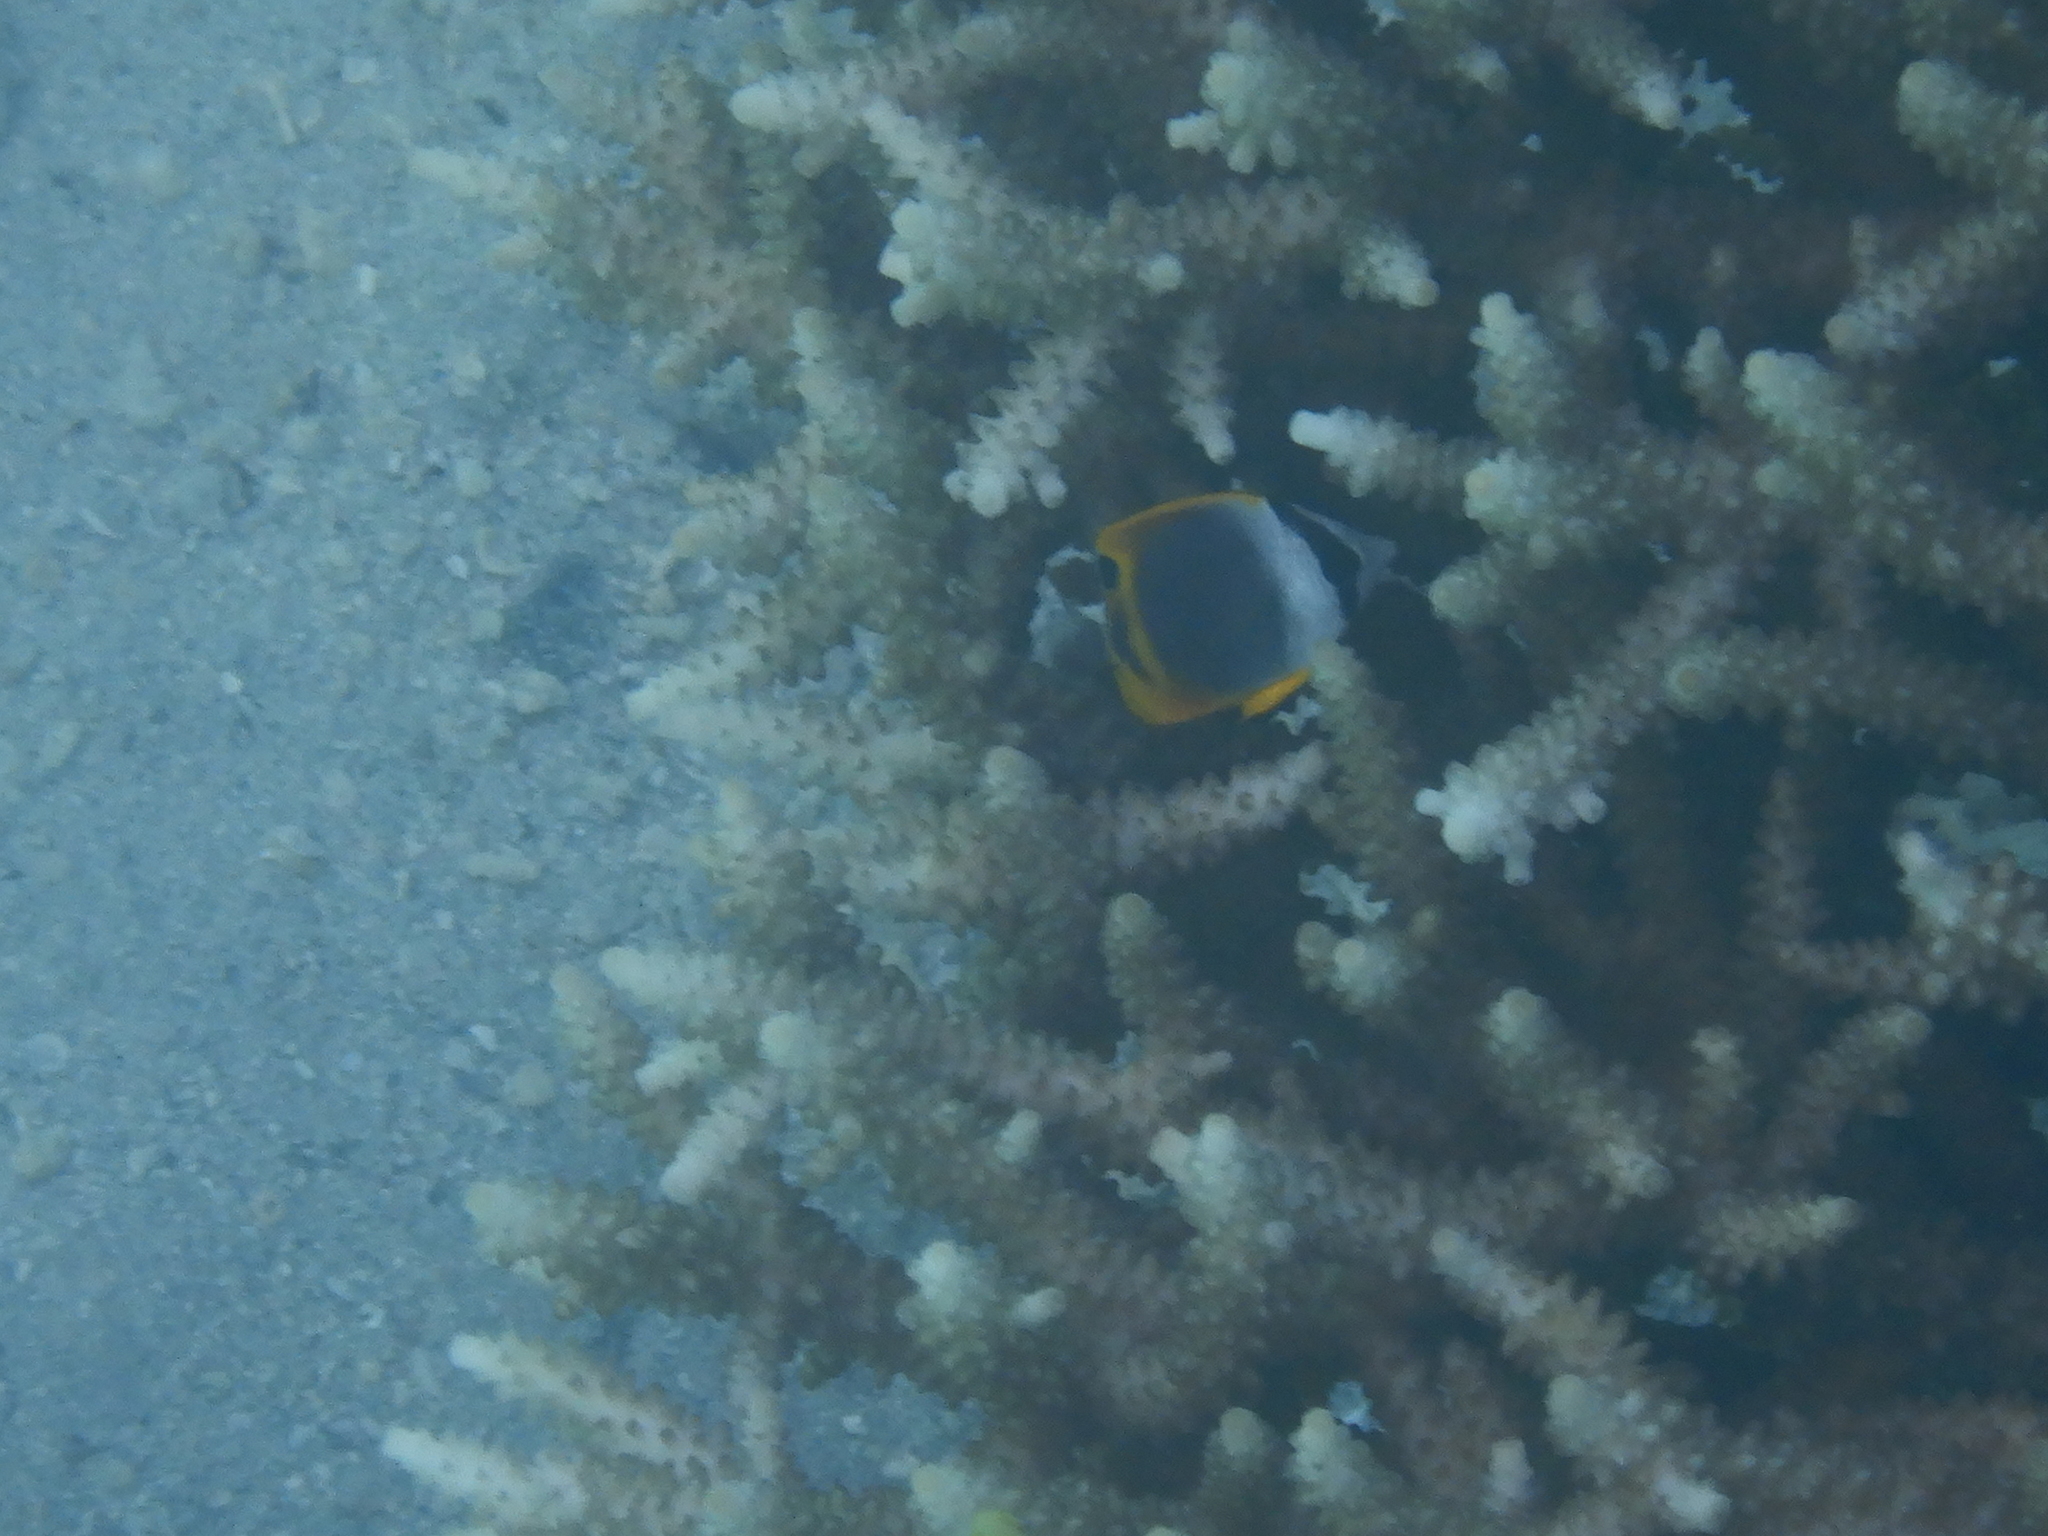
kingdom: Animalia
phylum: Chordata
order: Perciformes
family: Chaetodontidae
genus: Chaetodon
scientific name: Chaetodon flavirostris
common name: Black butterflyfish
